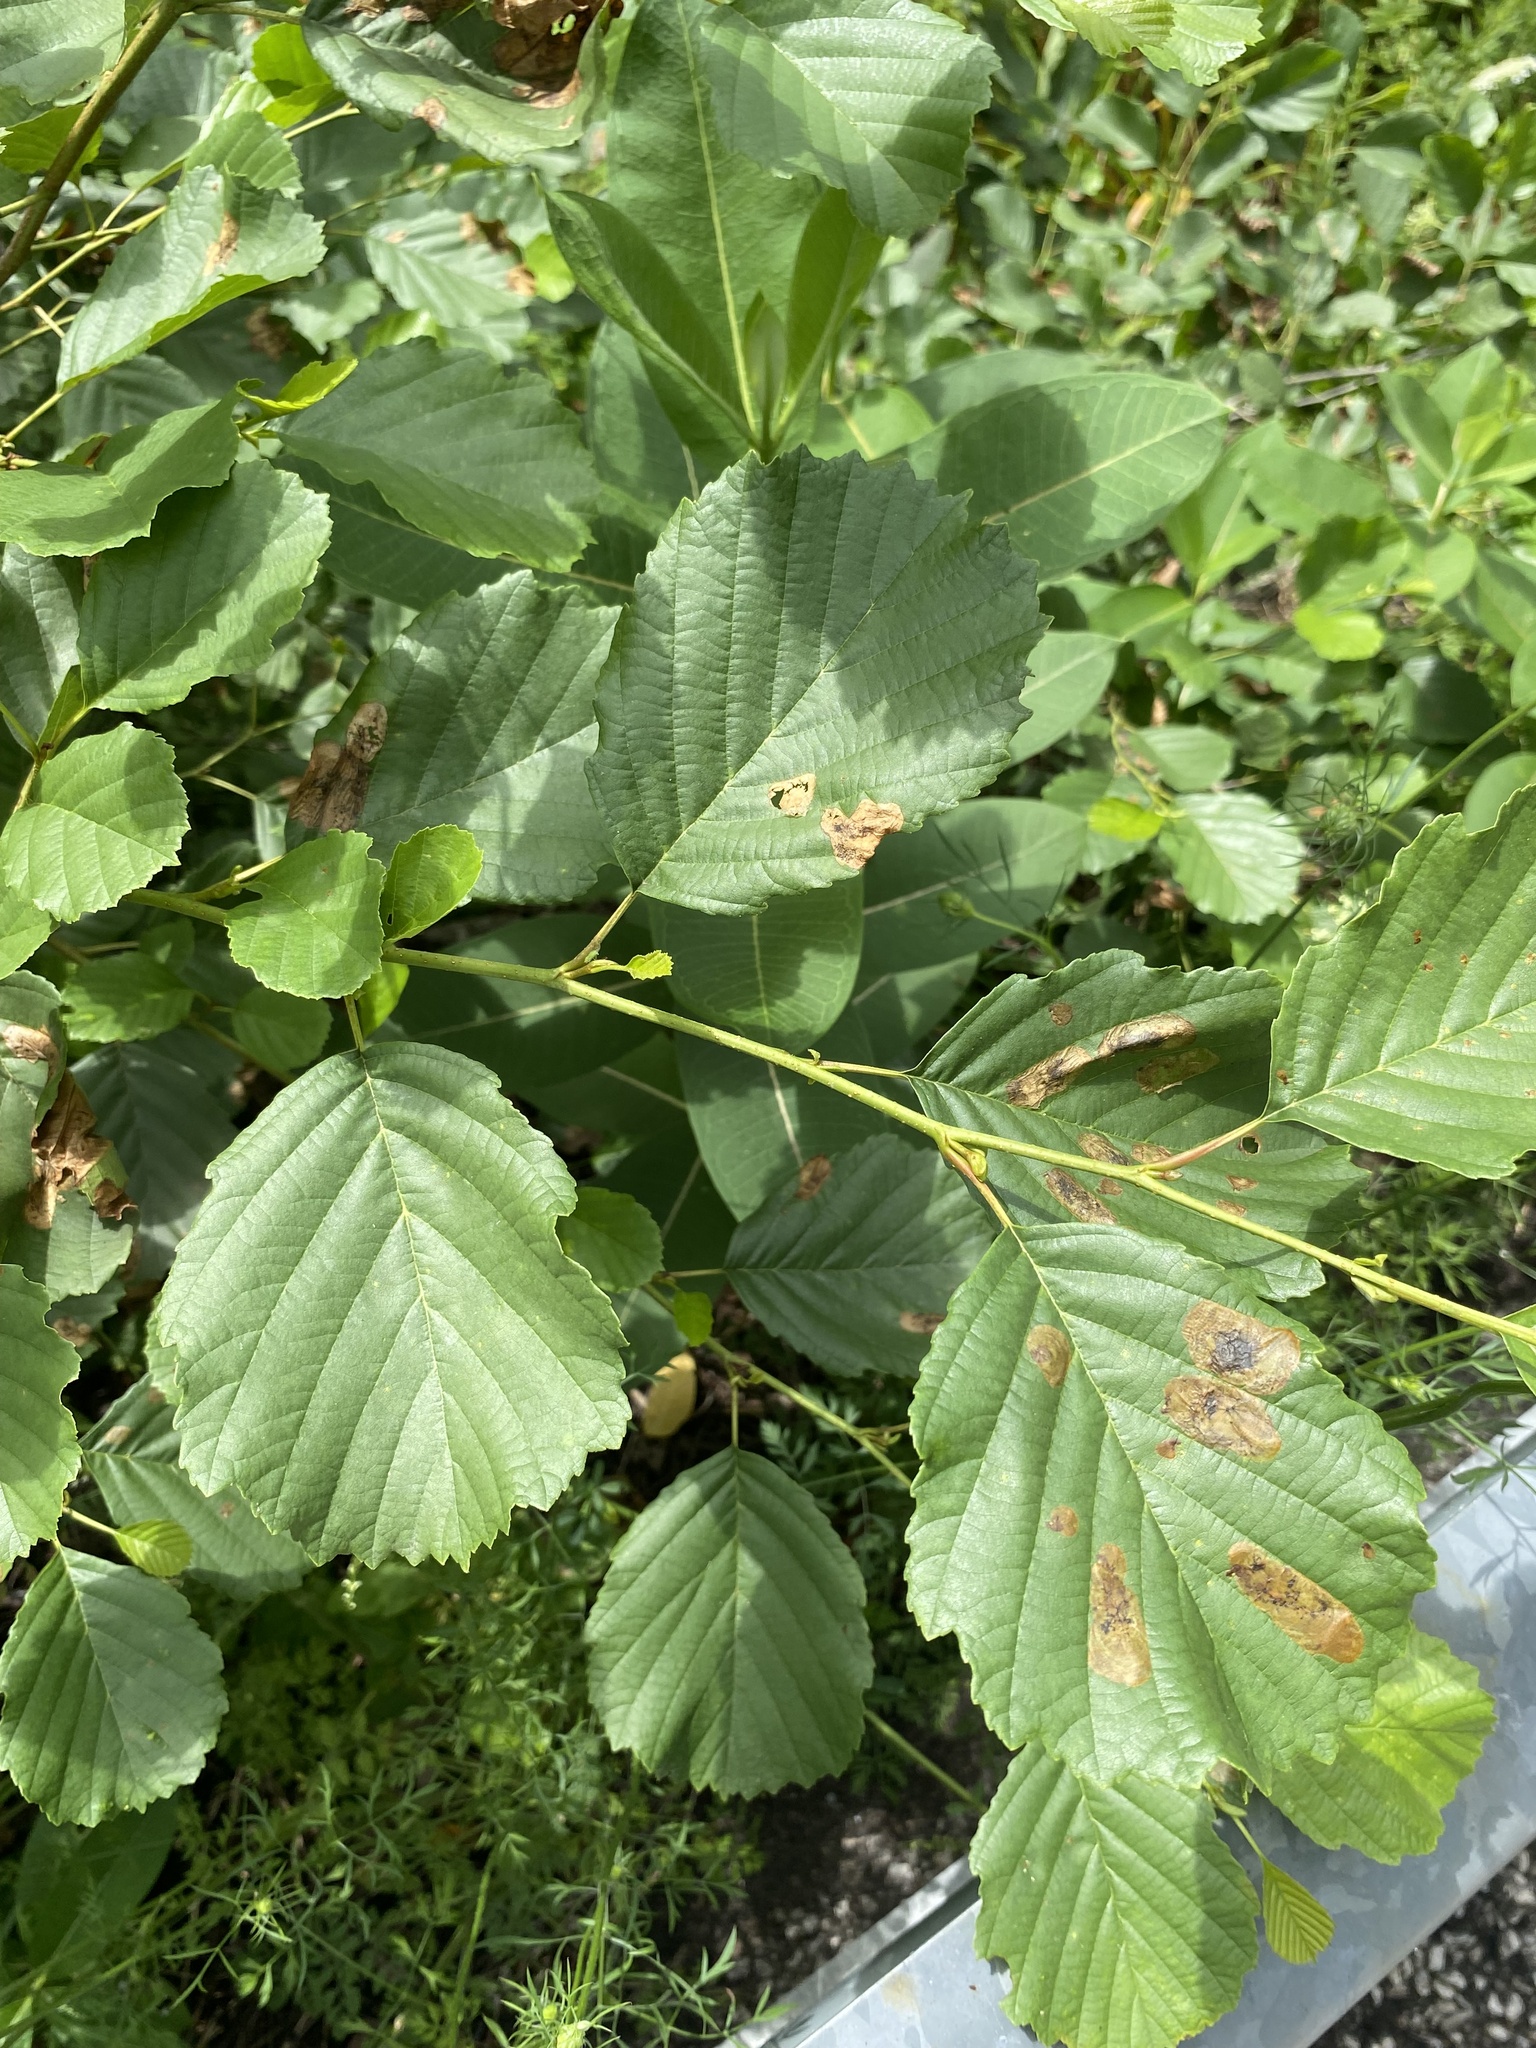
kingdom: Plantae
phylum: Tracheophyta
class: Magnoliopsida
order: Fagales
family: Betulaceae
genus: Alnus
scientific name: Alnus glutinosa
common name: Black alder
